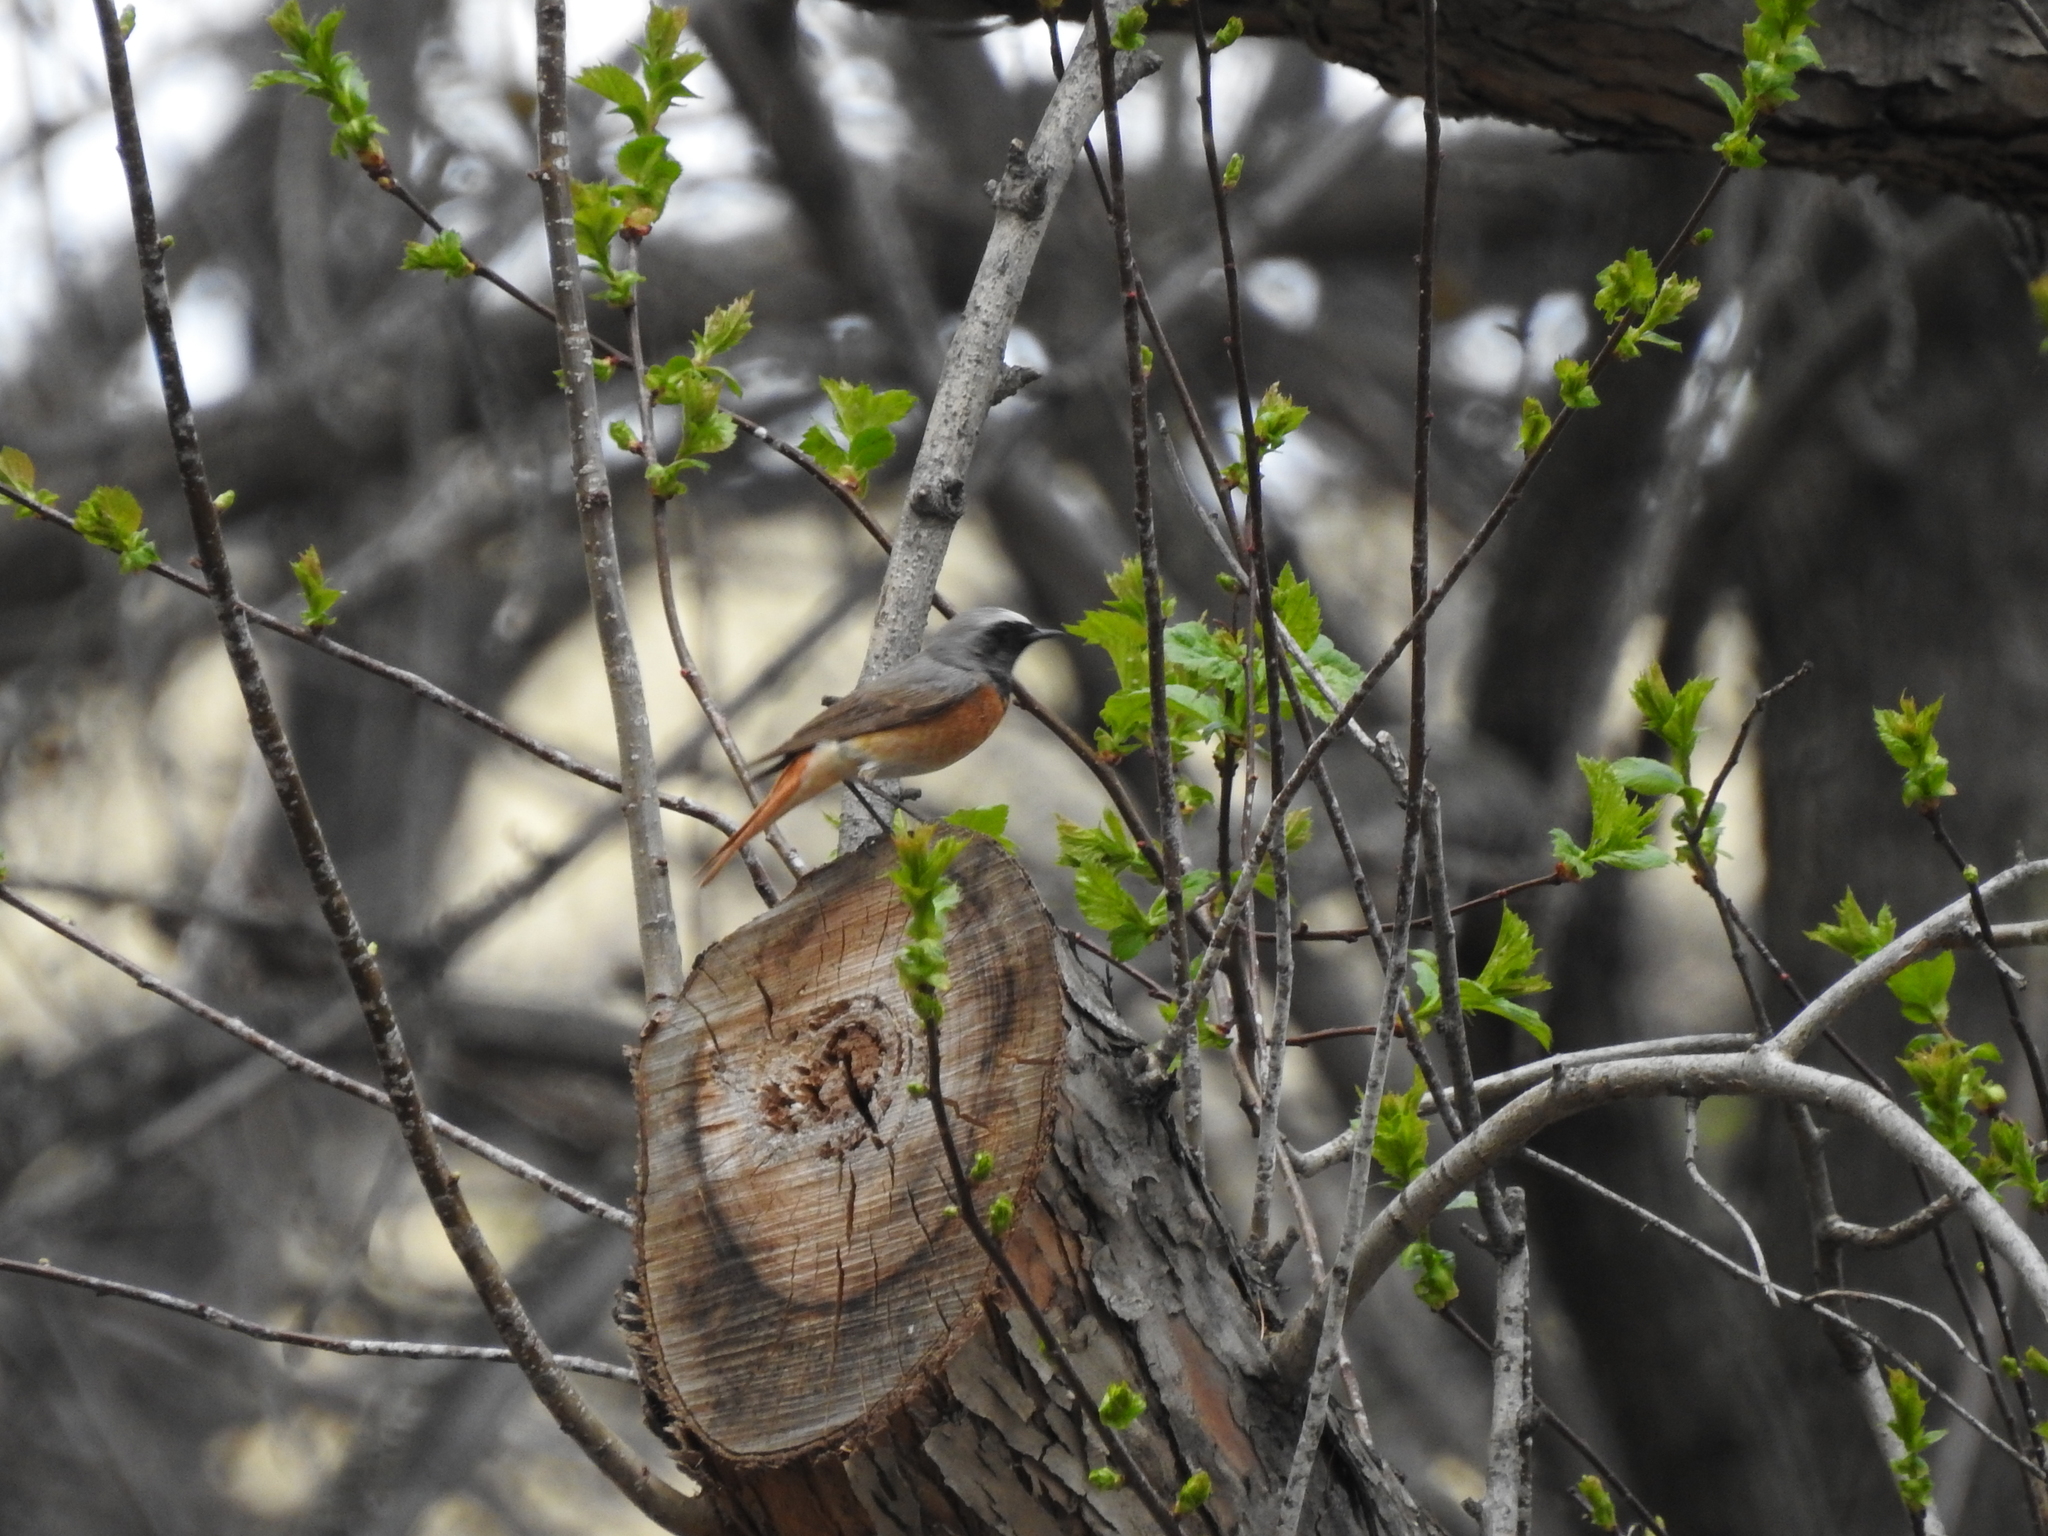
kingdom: Animalia
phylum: Chordata
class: Aves
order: Passeriformes
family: Muscicapidae
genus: Phoenicurus
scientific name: Phoenicurus phoenicurus
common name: Common redstart
